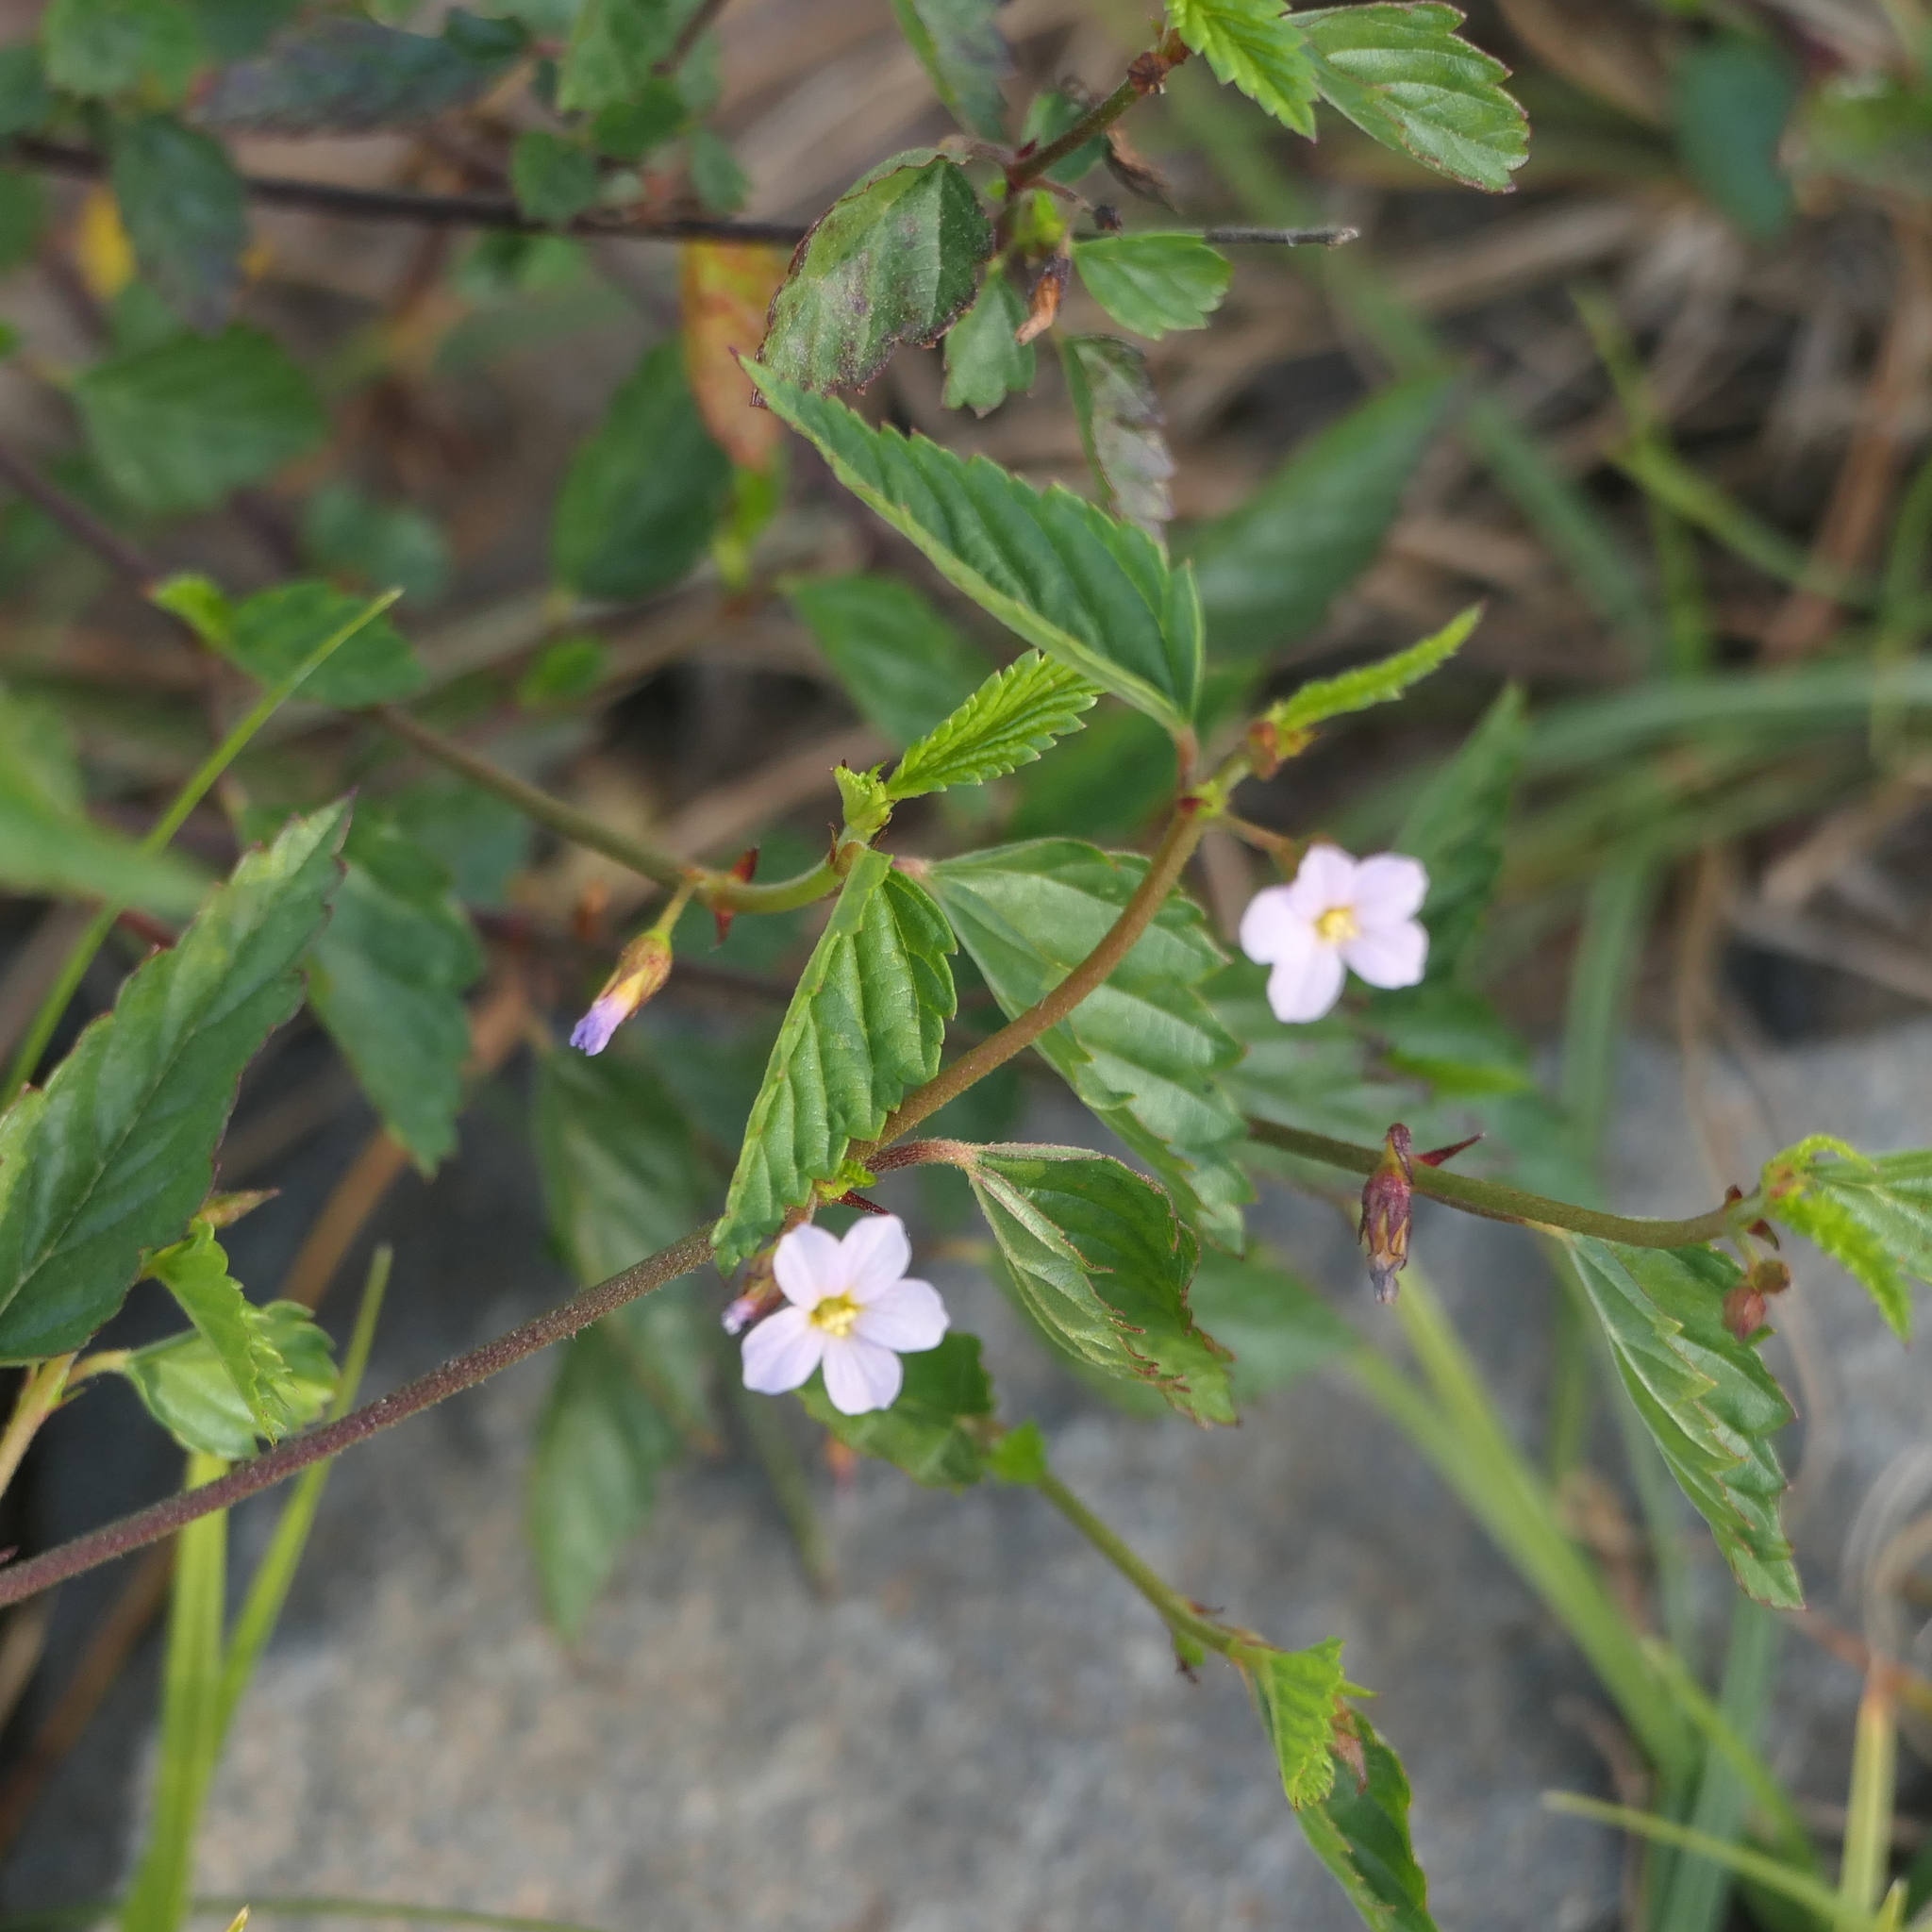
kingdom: Plantae
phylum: Tracheophyta
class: Magnoliopsida
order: Malvales
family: Malvaceae
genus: Melochia
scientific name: Melochia pyramidata
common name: Pyramidflower
